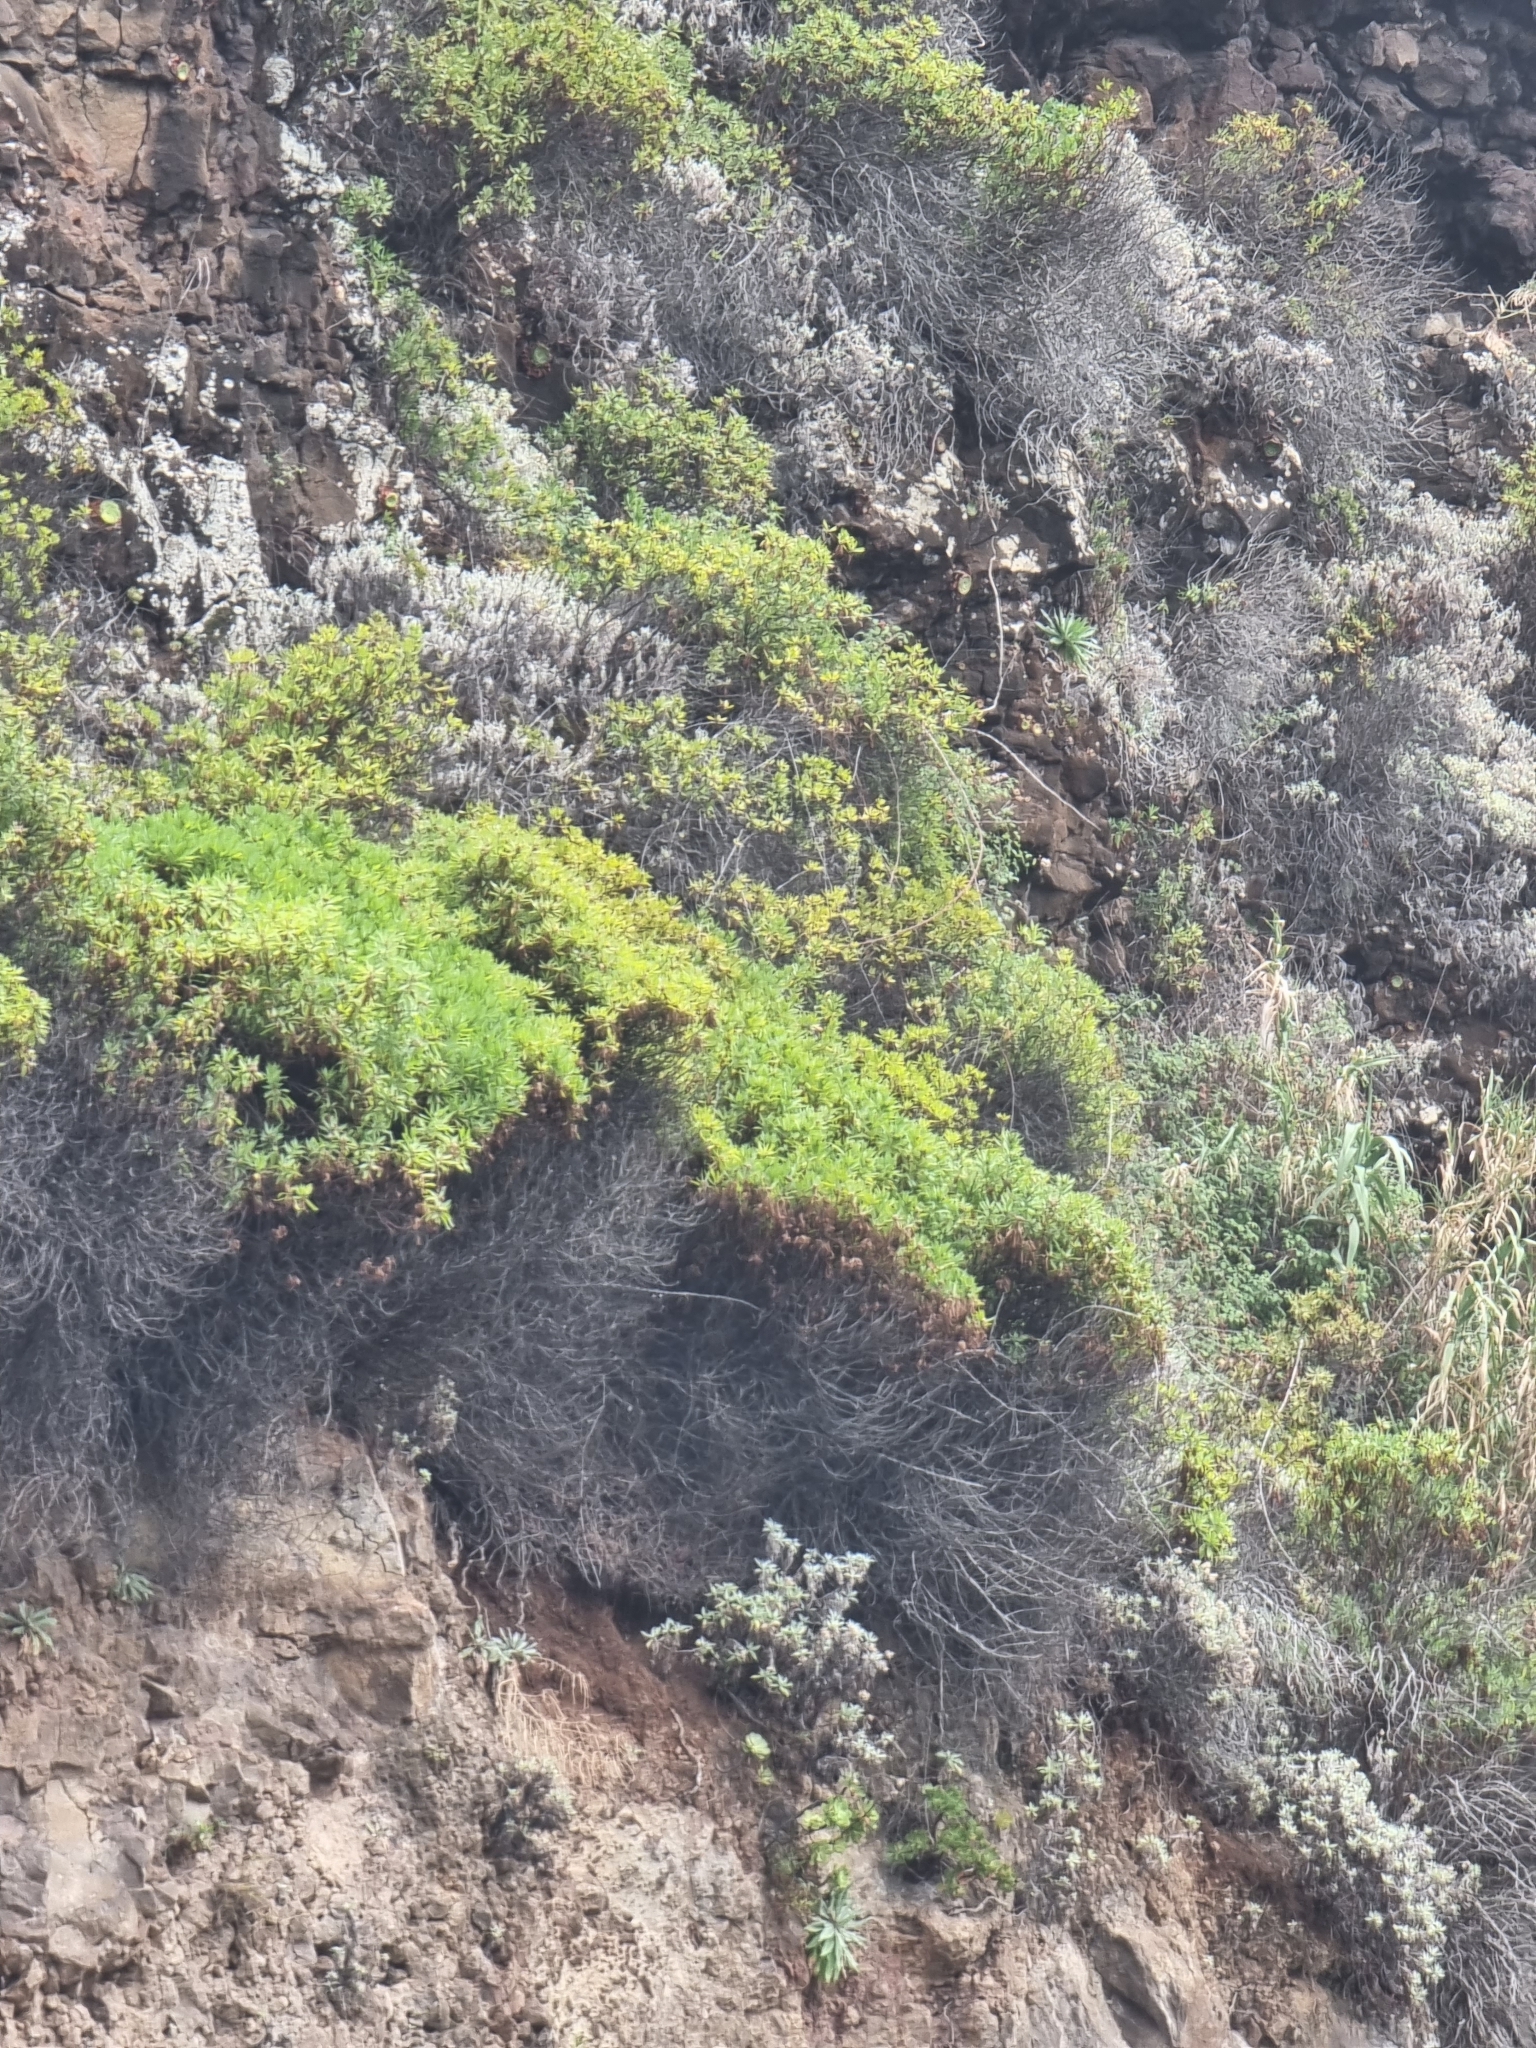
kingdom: Plantae
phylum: Tracheophyta
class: Magnoliopsida
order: Lamiales
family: Plantaginaceae
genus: Globularia
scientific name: Globularia salicina
